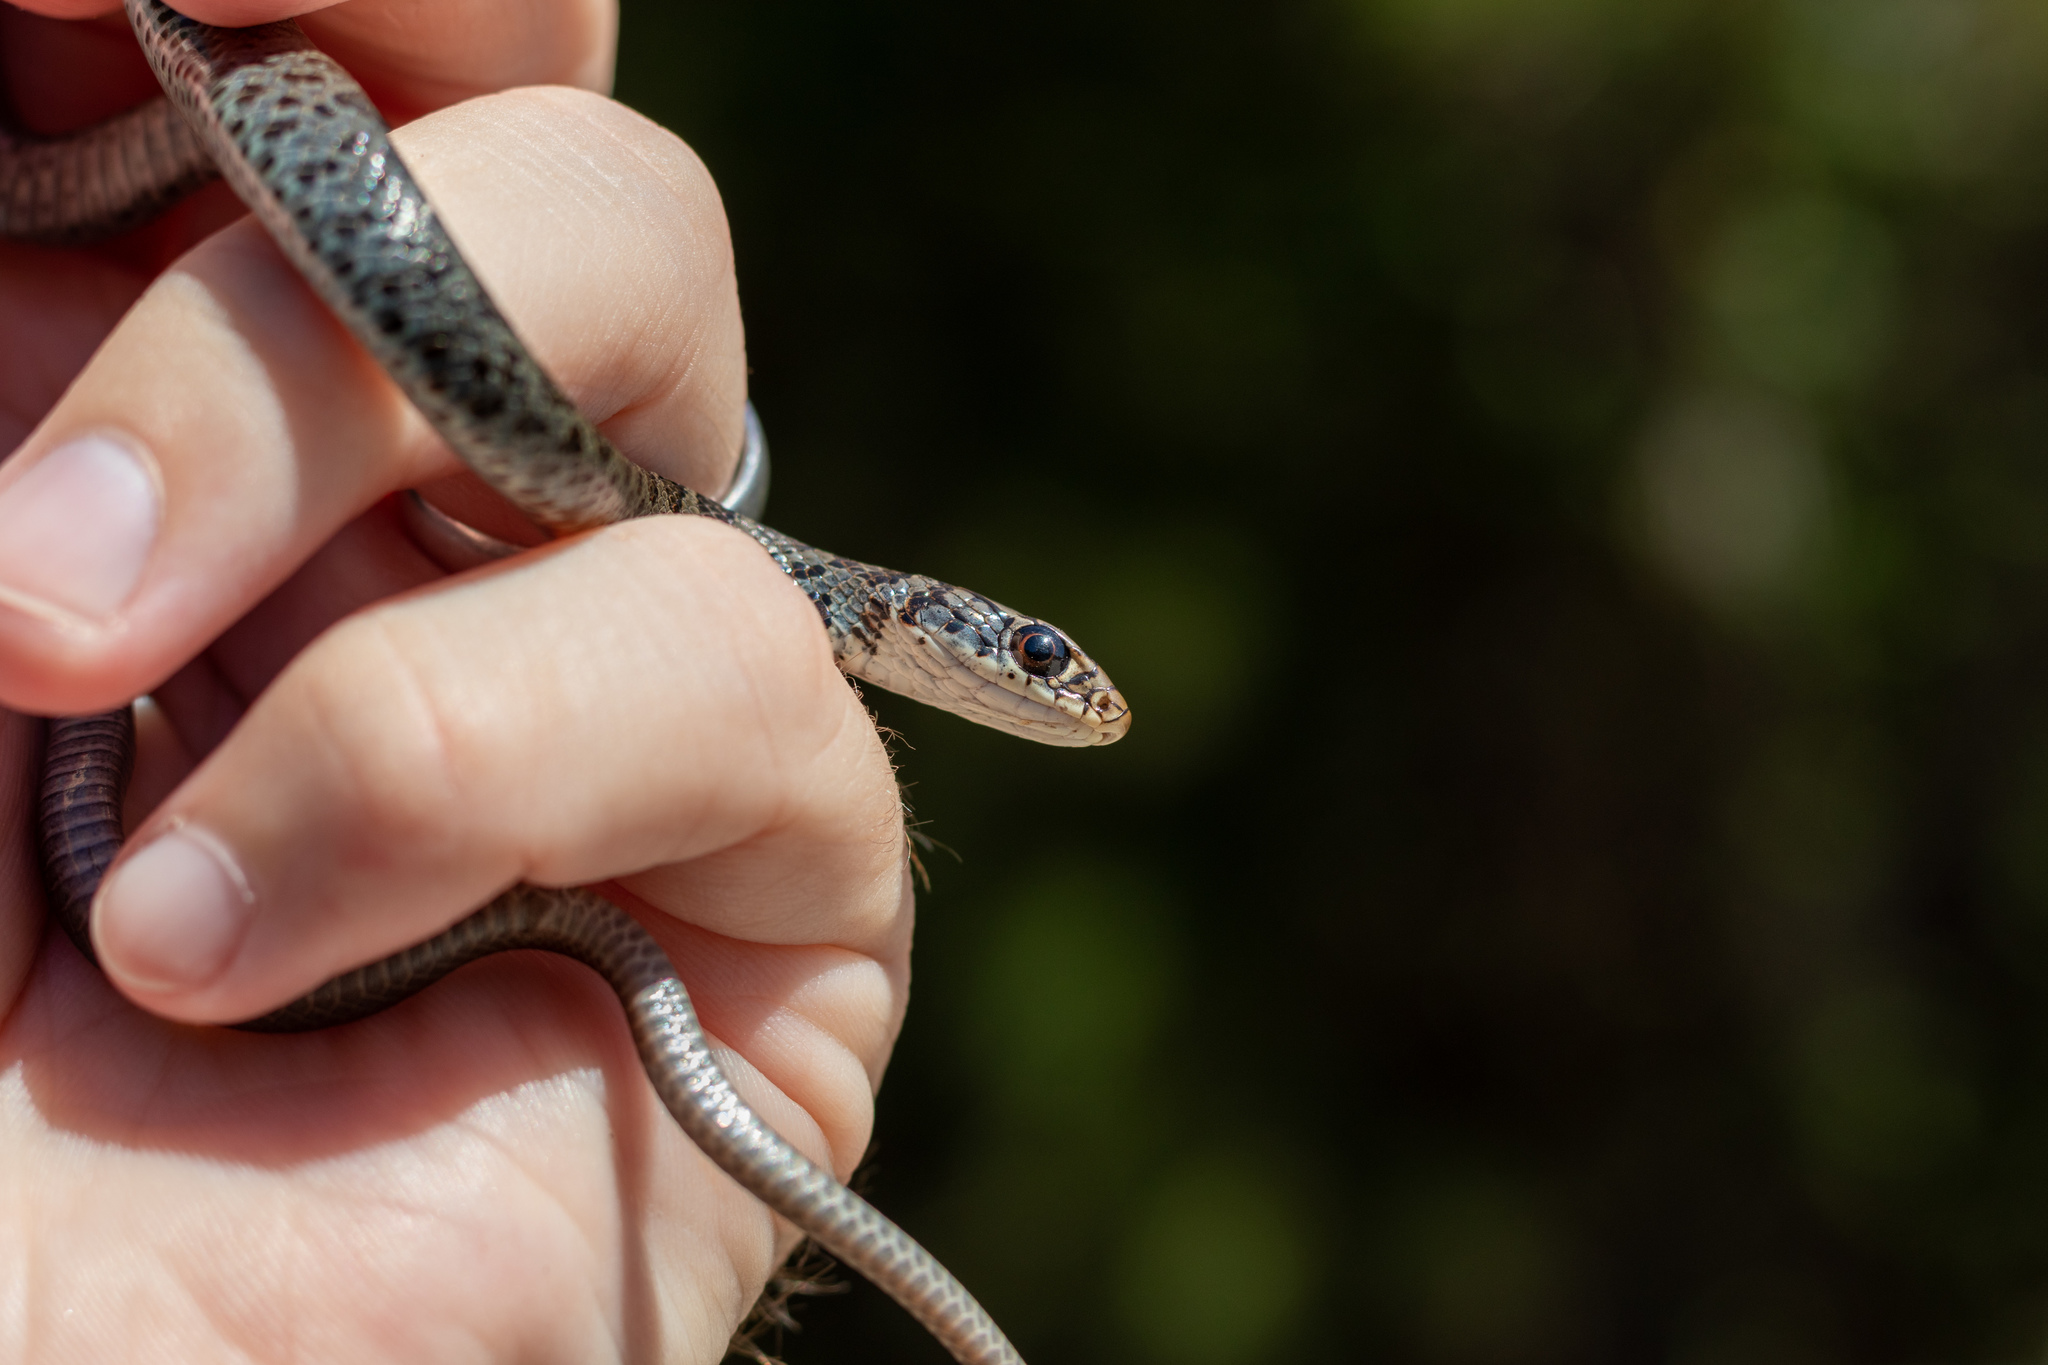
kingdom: Animalia
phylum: Chordata
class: Squamata
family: Colubridae
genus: Coluber
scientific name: Coluber constrictor
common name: Eastern racer
